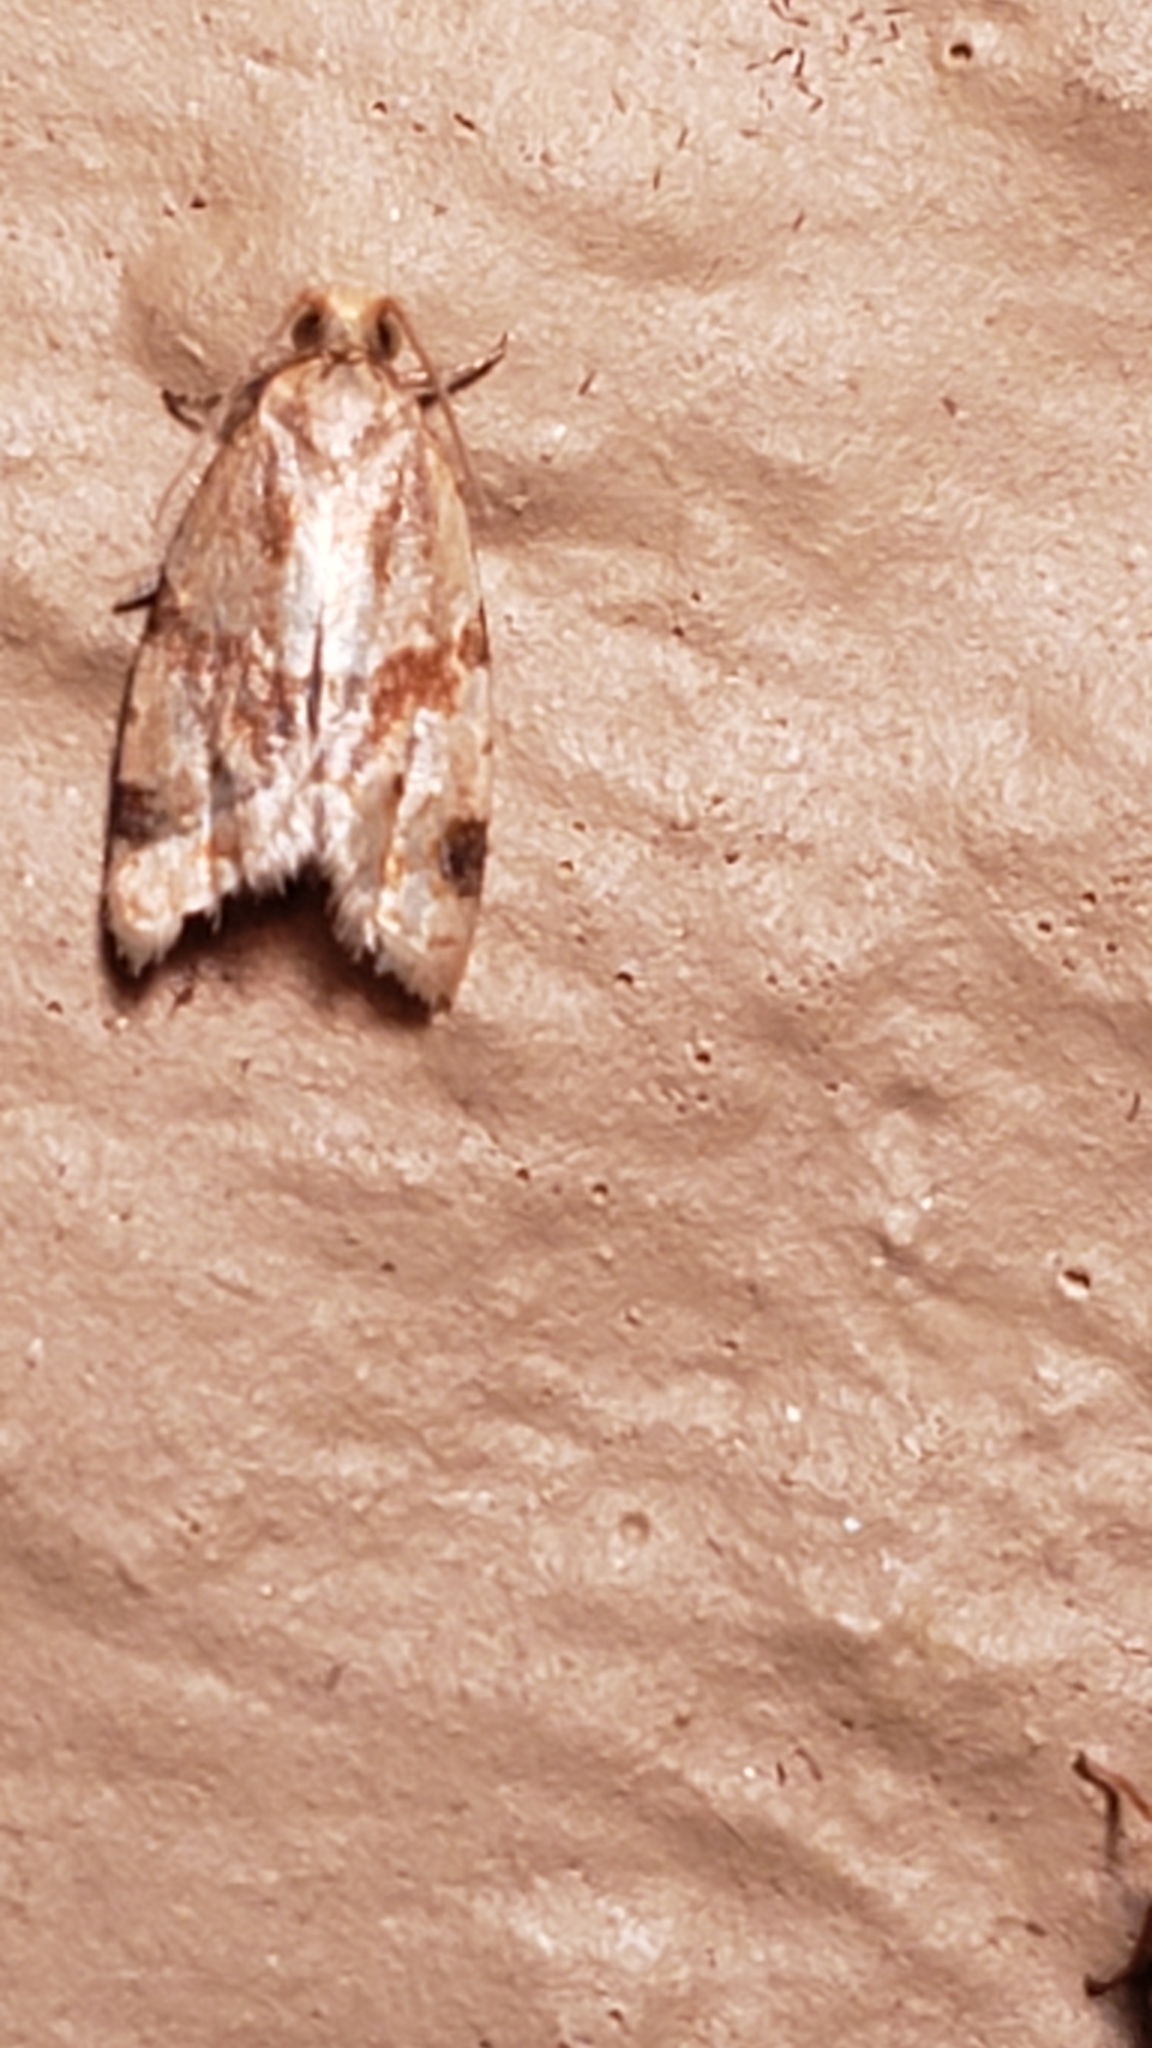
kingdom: Animalia
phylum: Arthropoda
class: Insecta
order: Lepidoptera
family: Tortricidae
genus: Clepsis
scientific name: Clepsis peritana
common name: Garden tortrix
